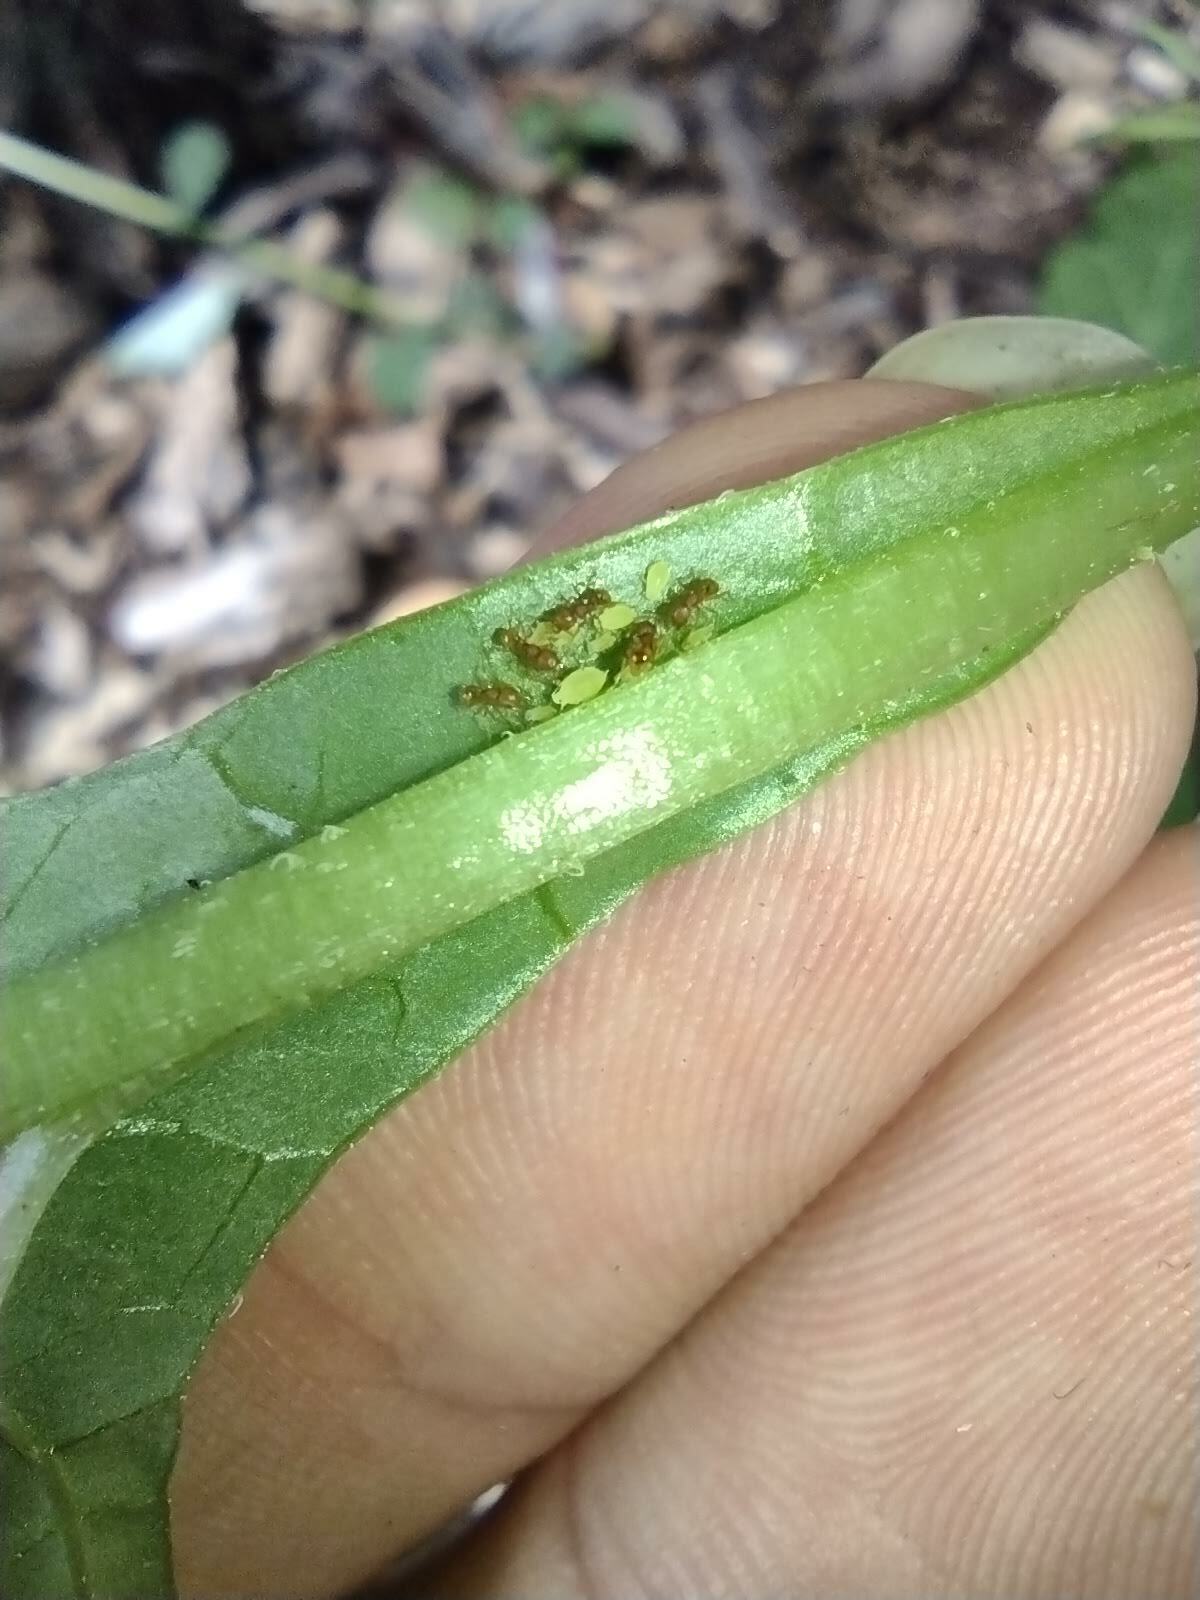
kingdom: Animalia
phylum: Arthropoda
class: Insecta
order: Hymenoptera
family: Formicidae
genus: Wasmannia
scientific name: Wasmannia auropunctata
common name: Little fire ant
